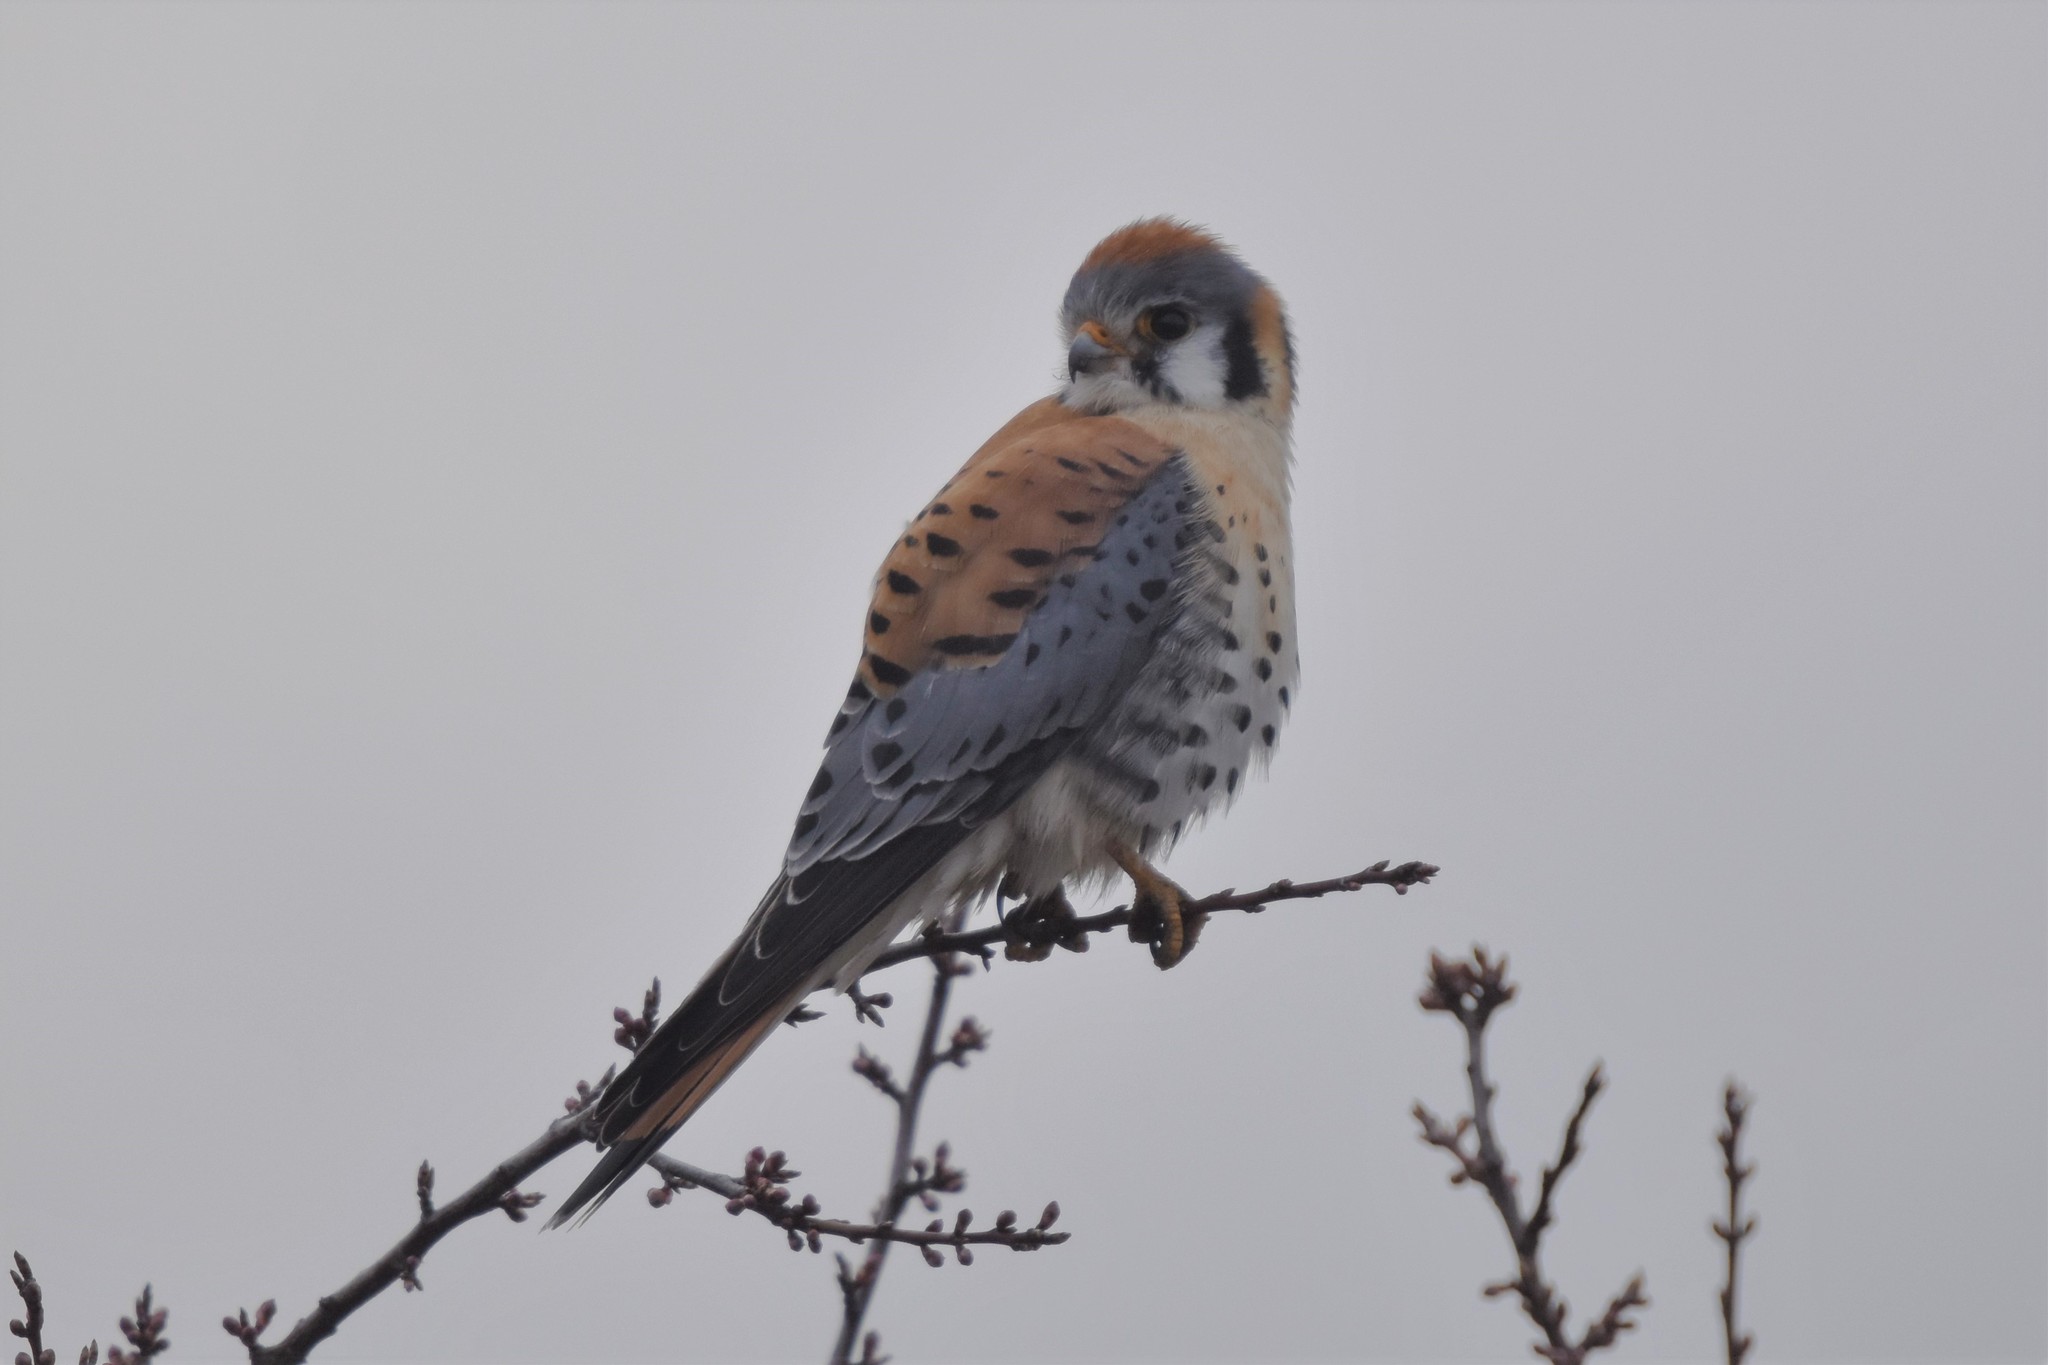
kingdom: Animalia
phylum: Chordata
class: Aves
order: Falconiformes
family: Falconidae
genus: Falco
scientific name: Falco sparverius
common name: American kestrel
